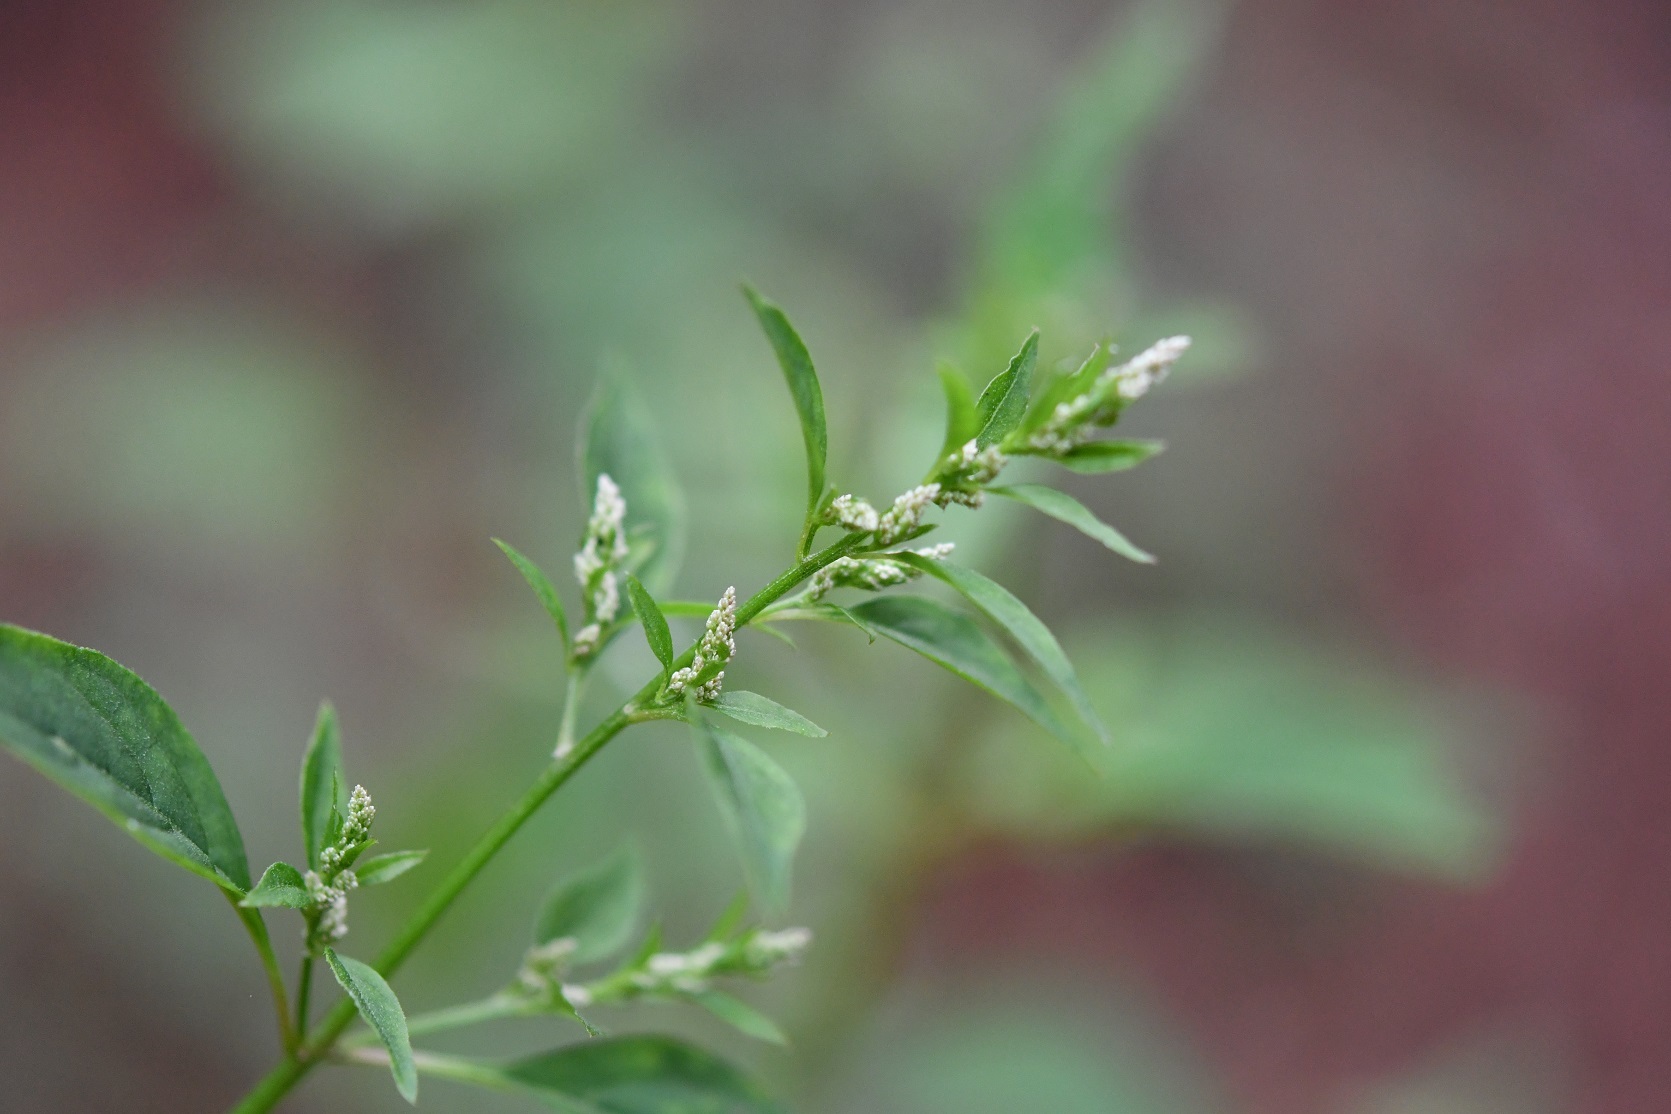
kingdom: Plantae
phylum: Tracheophyta
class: Magnoliopsida
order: Caryophyllales
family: Amaranthaceae
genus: Iresine
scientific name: Iresine diffusa
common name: Juba's-bush
